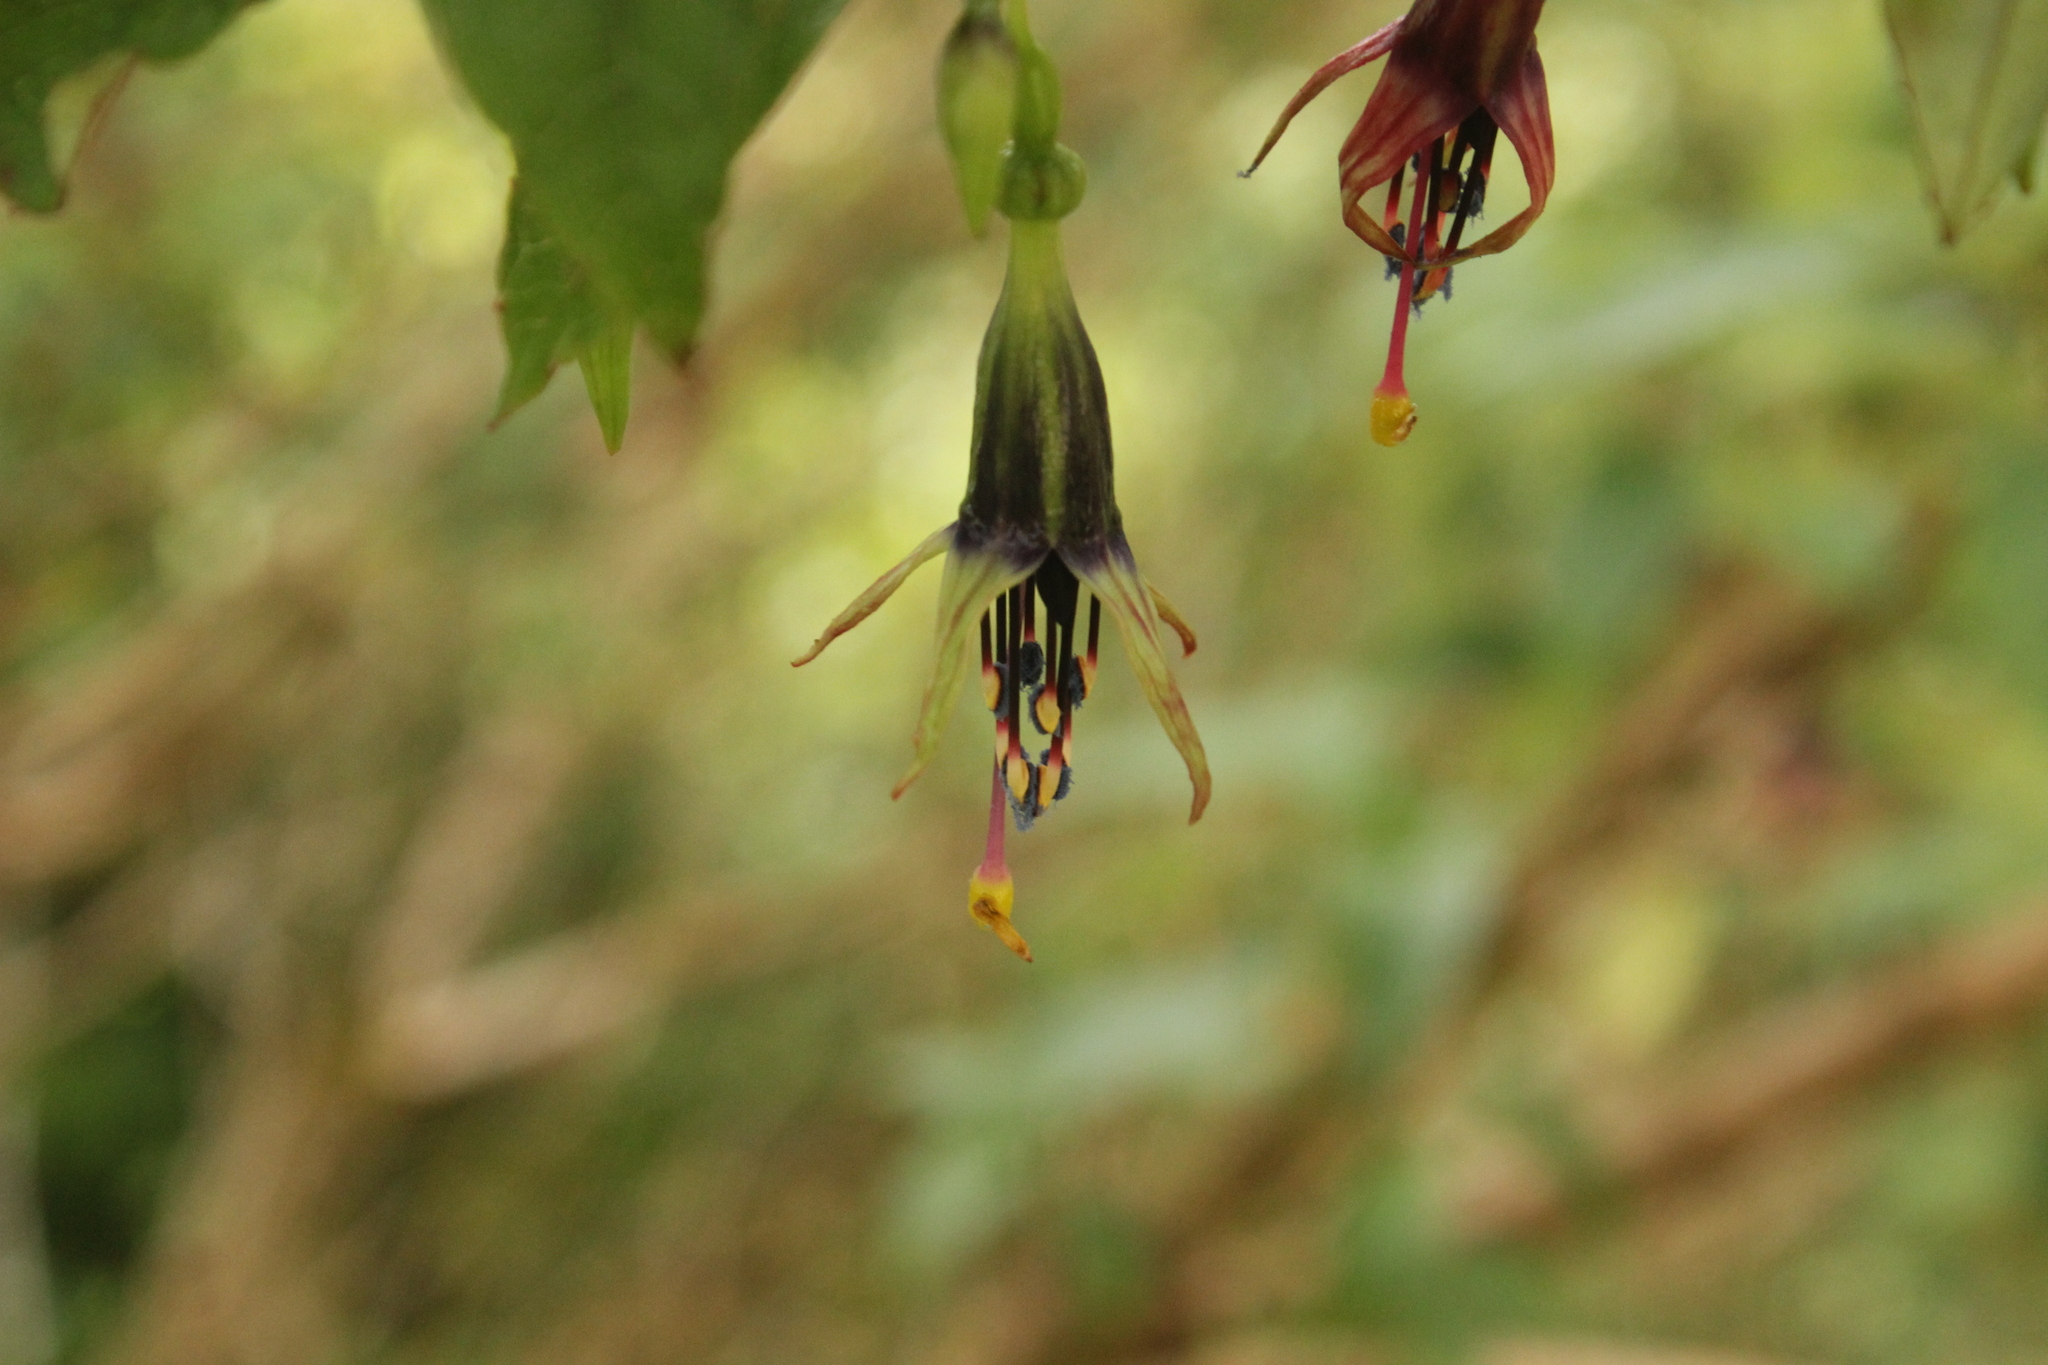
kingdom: Plantae
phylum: Tracheophyta
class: Magnoliopsida
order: Myrtales
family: Onagraceae
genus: Fuchsia
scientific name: Fuchsia excorticata
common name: Tree fuchsia
